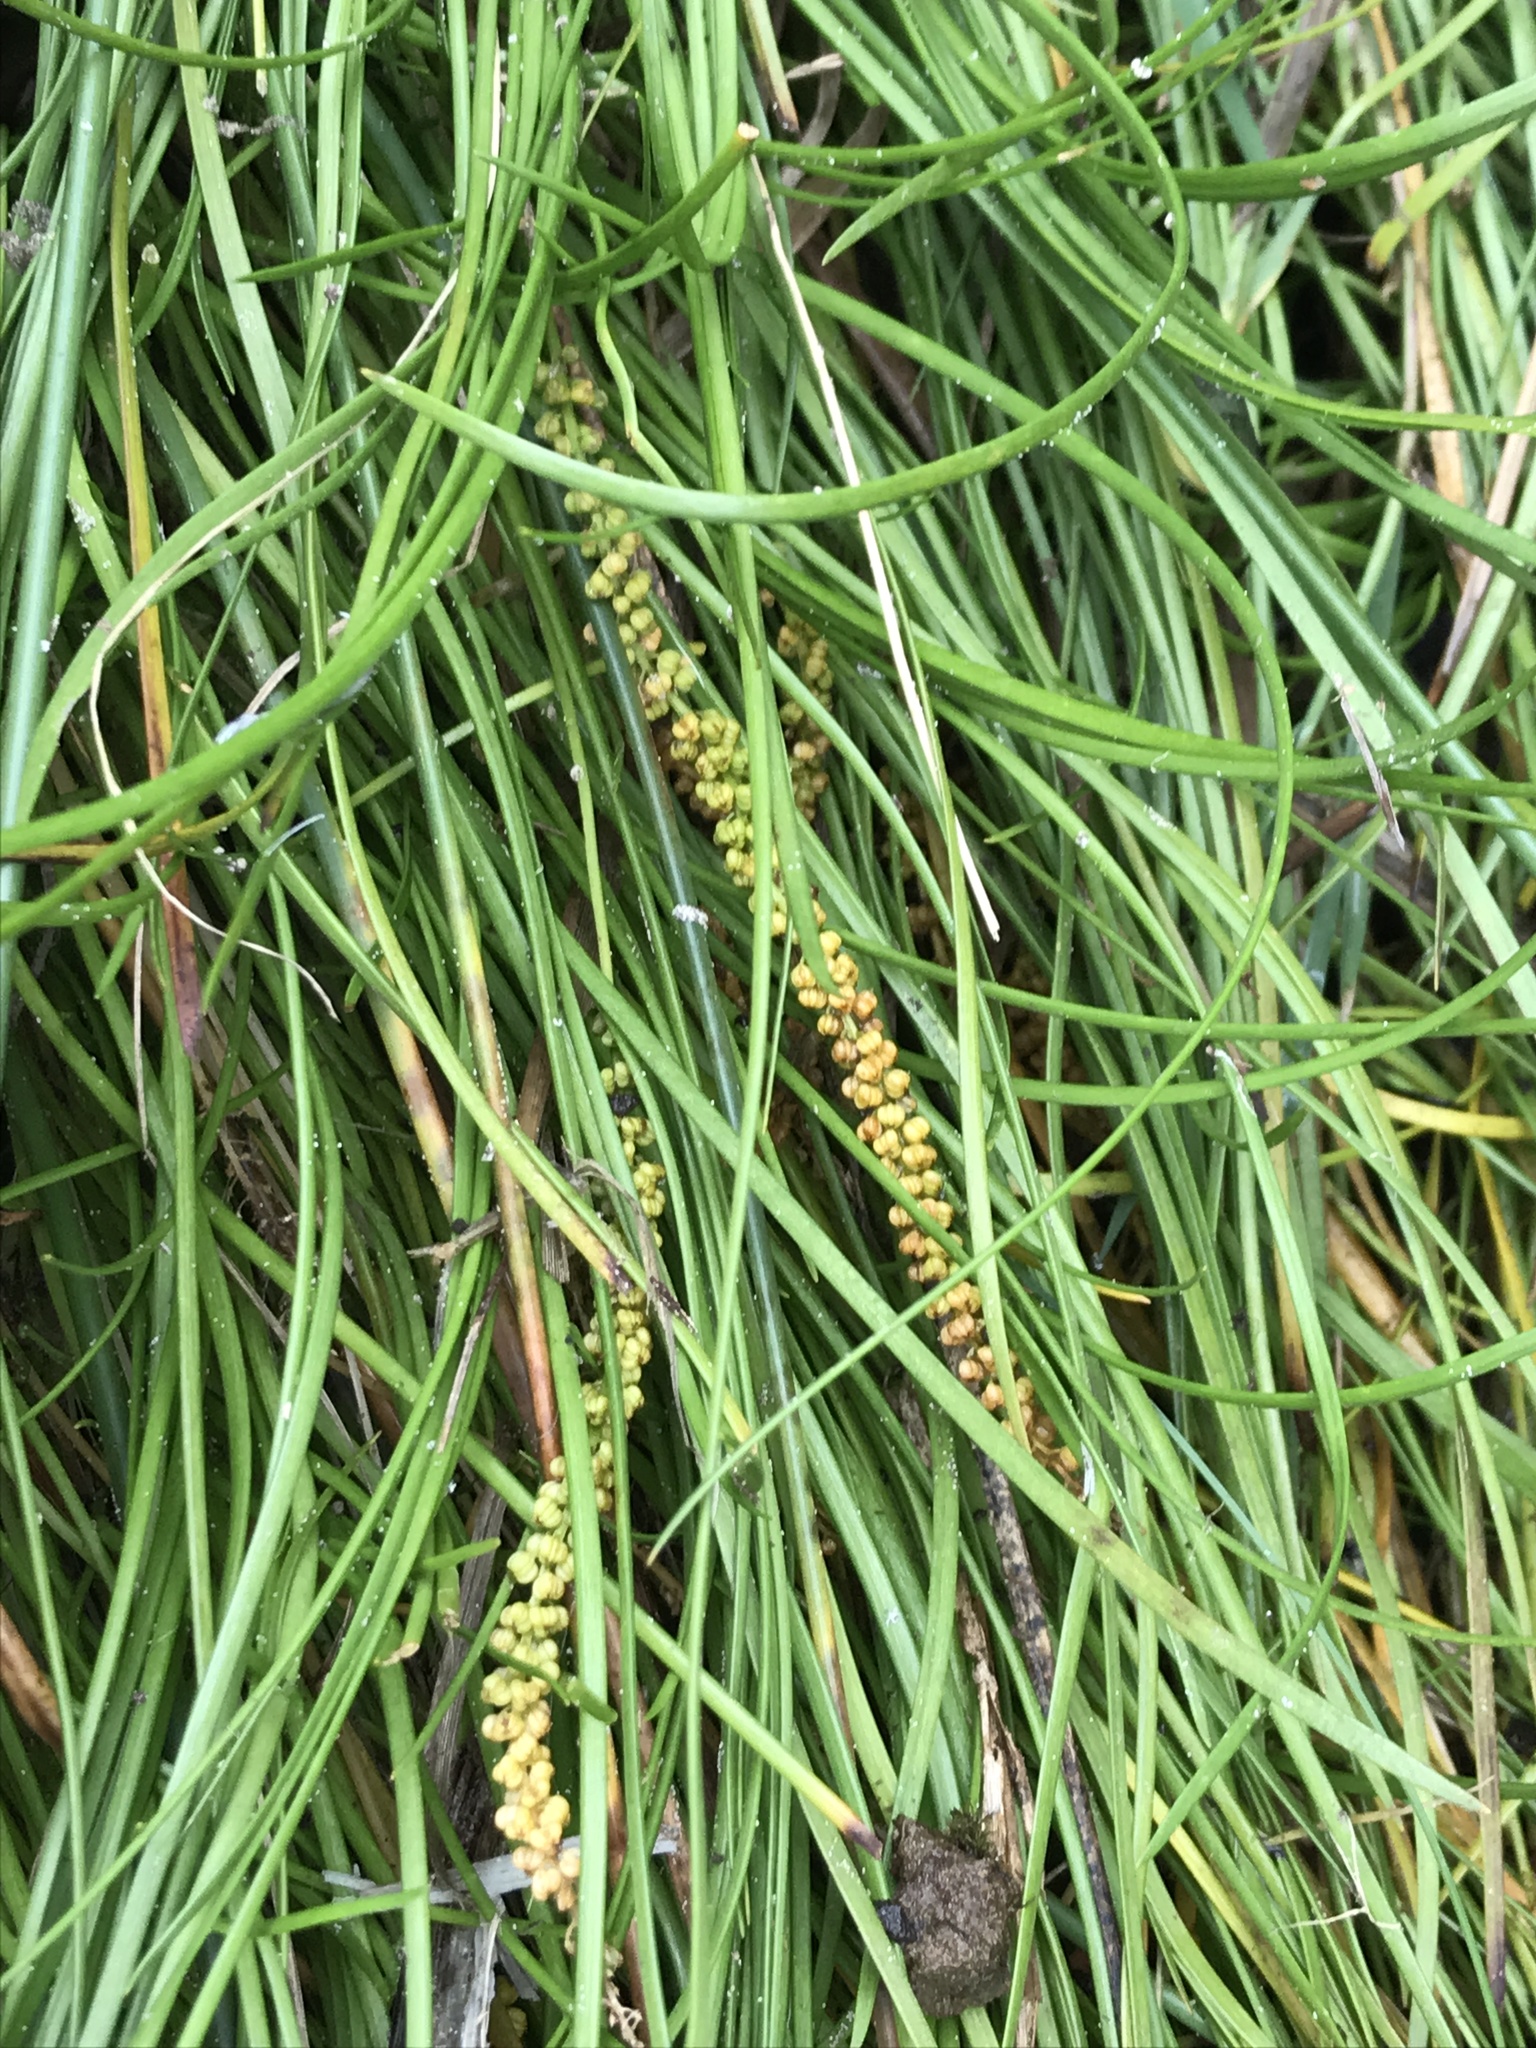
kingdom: Plantae
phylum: Tracheophyta
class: Liliopsida
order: Alismatales
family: Juncaginaceae
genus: Triglochin
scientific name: Triglochin striata
